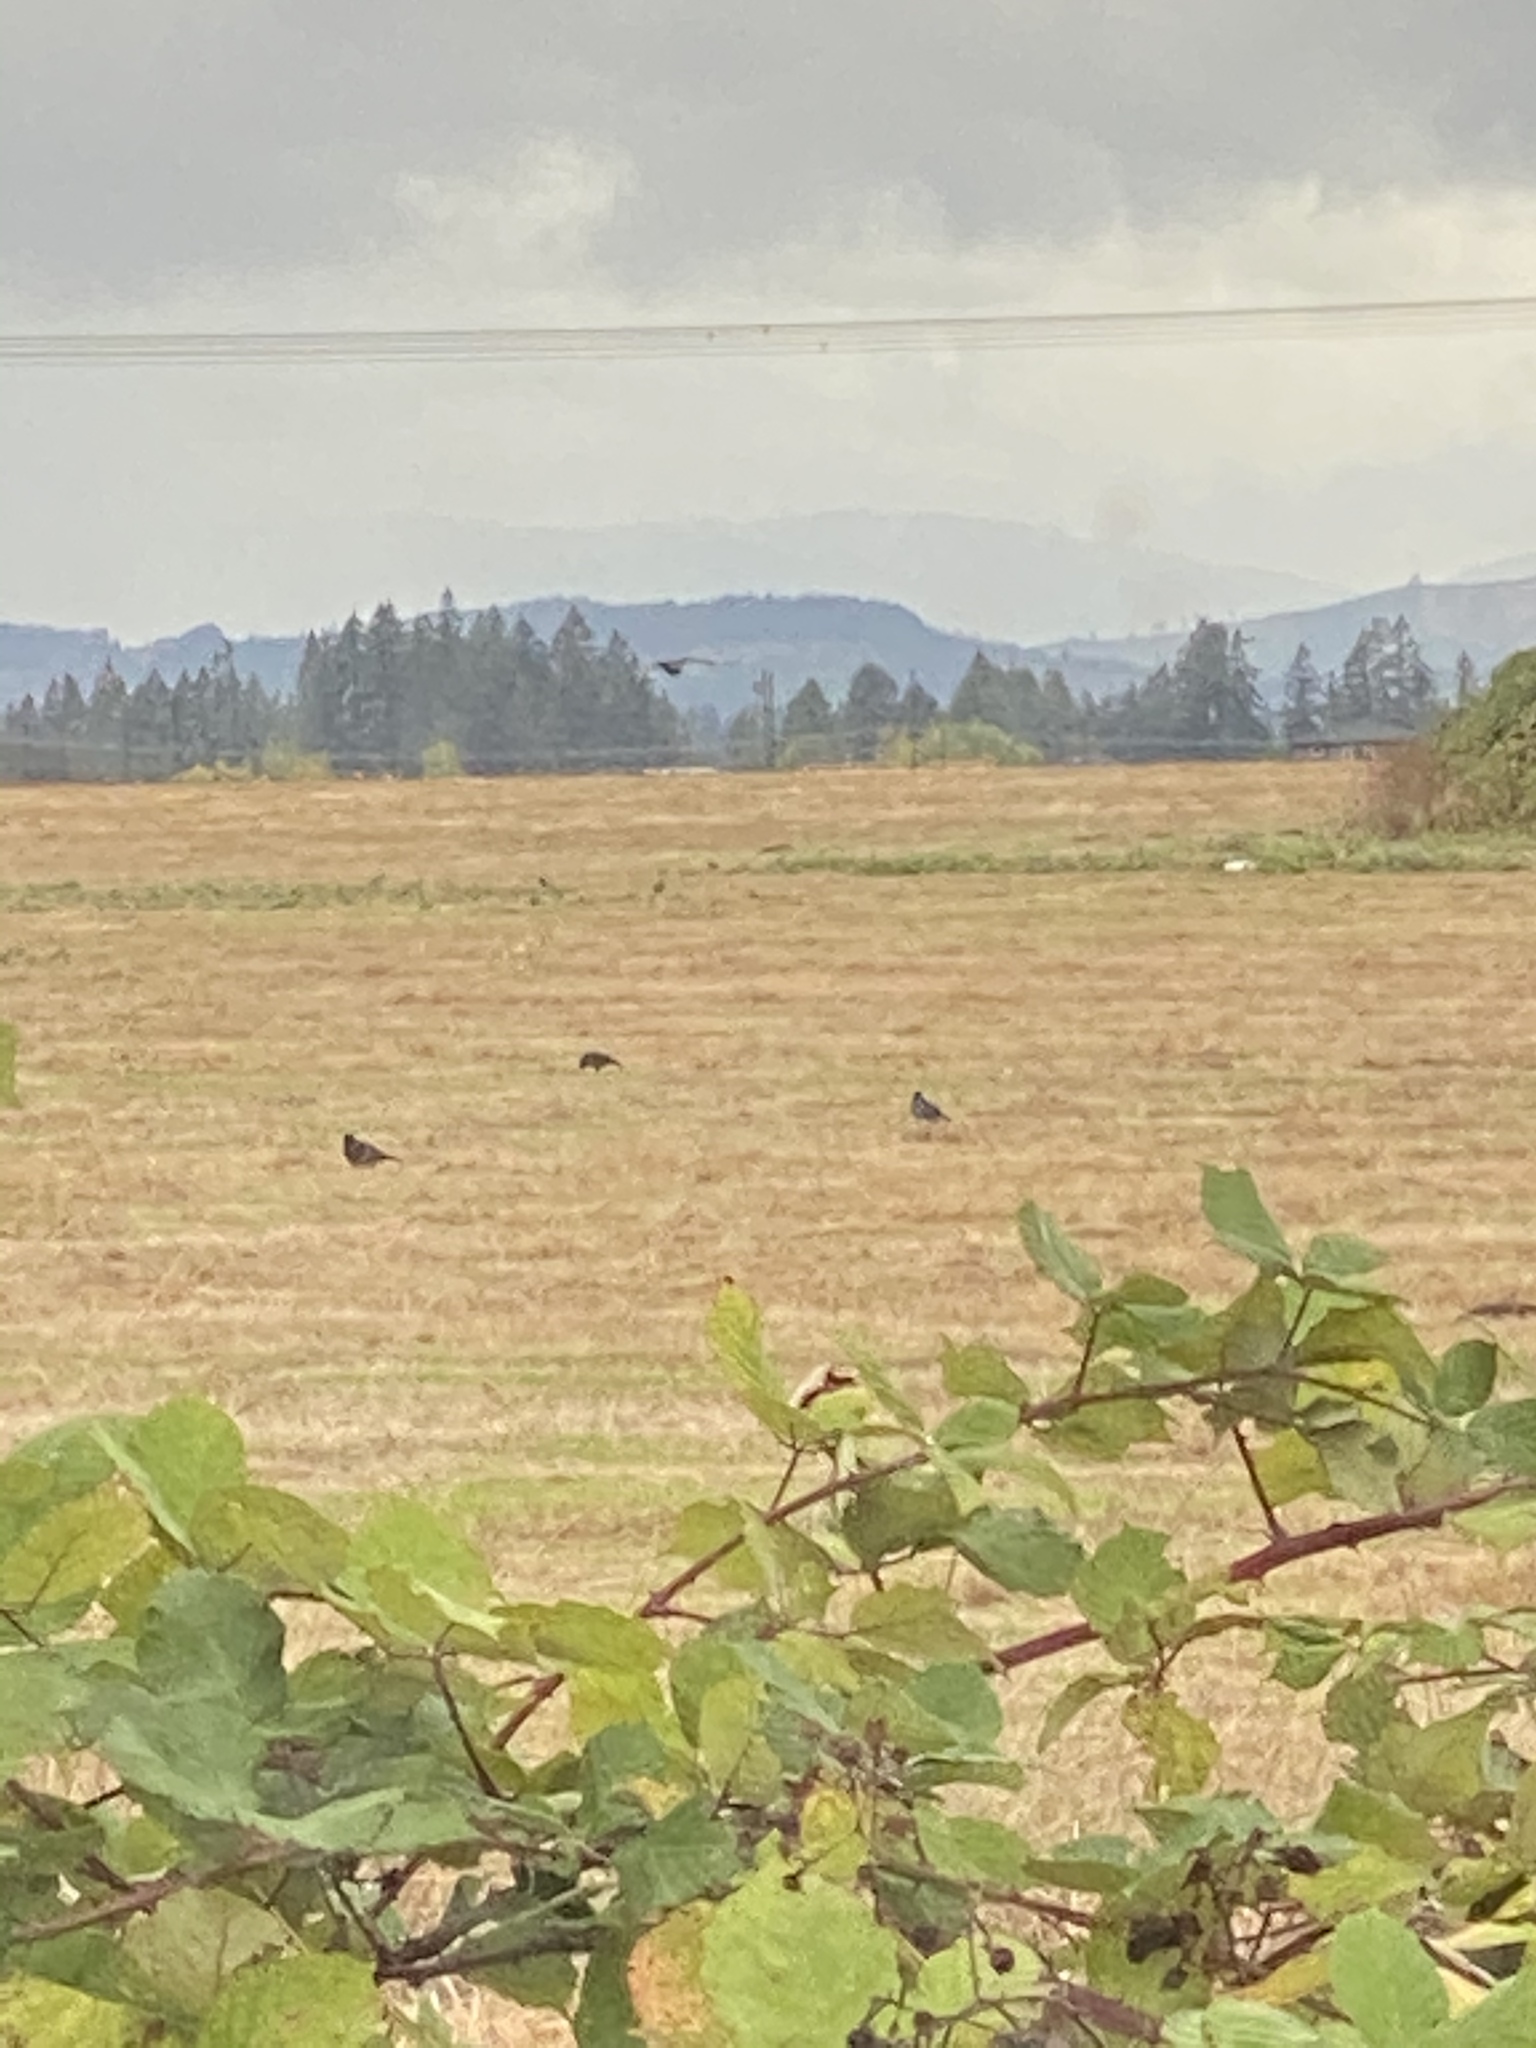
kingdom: Animalia
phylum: Chordata
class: Aves
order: Passeriformes
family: Corvidae
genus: Corvus
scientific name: Corvus brachyrhynchos
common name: American crow
